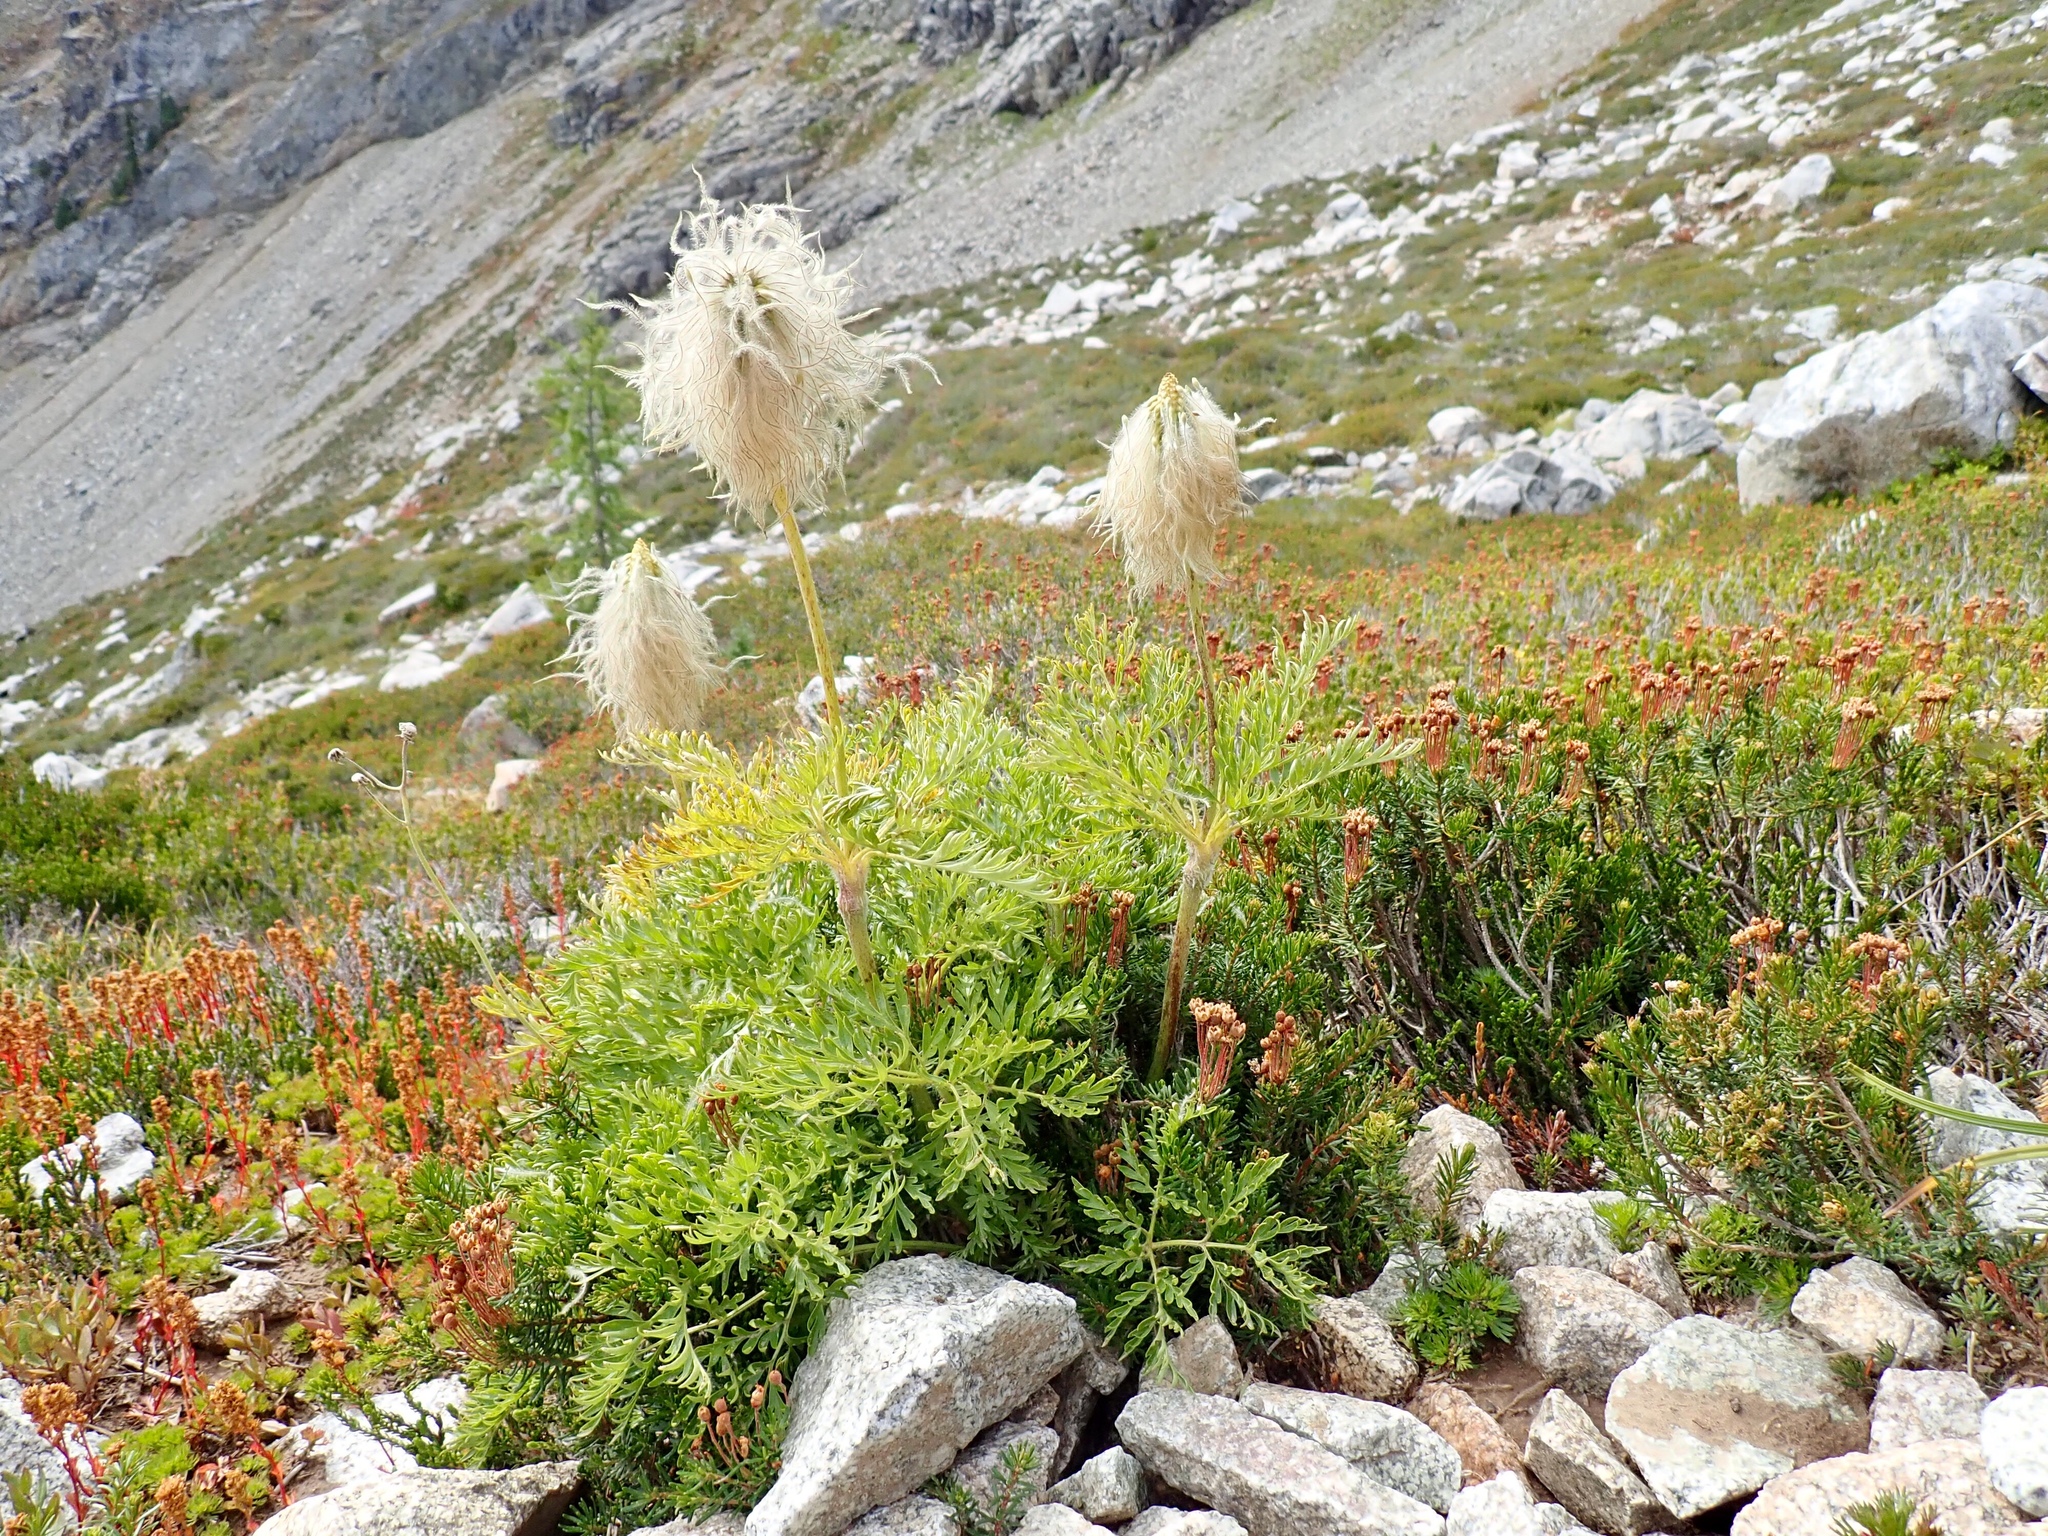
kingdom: Plantae
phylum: Tracheophyta
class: Magnoliopsida
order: Ranunculales
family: Ranunculaceae
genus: Pulsatilla
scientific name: Pulsatilla occidentalis
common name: Mountain pasqueflower
